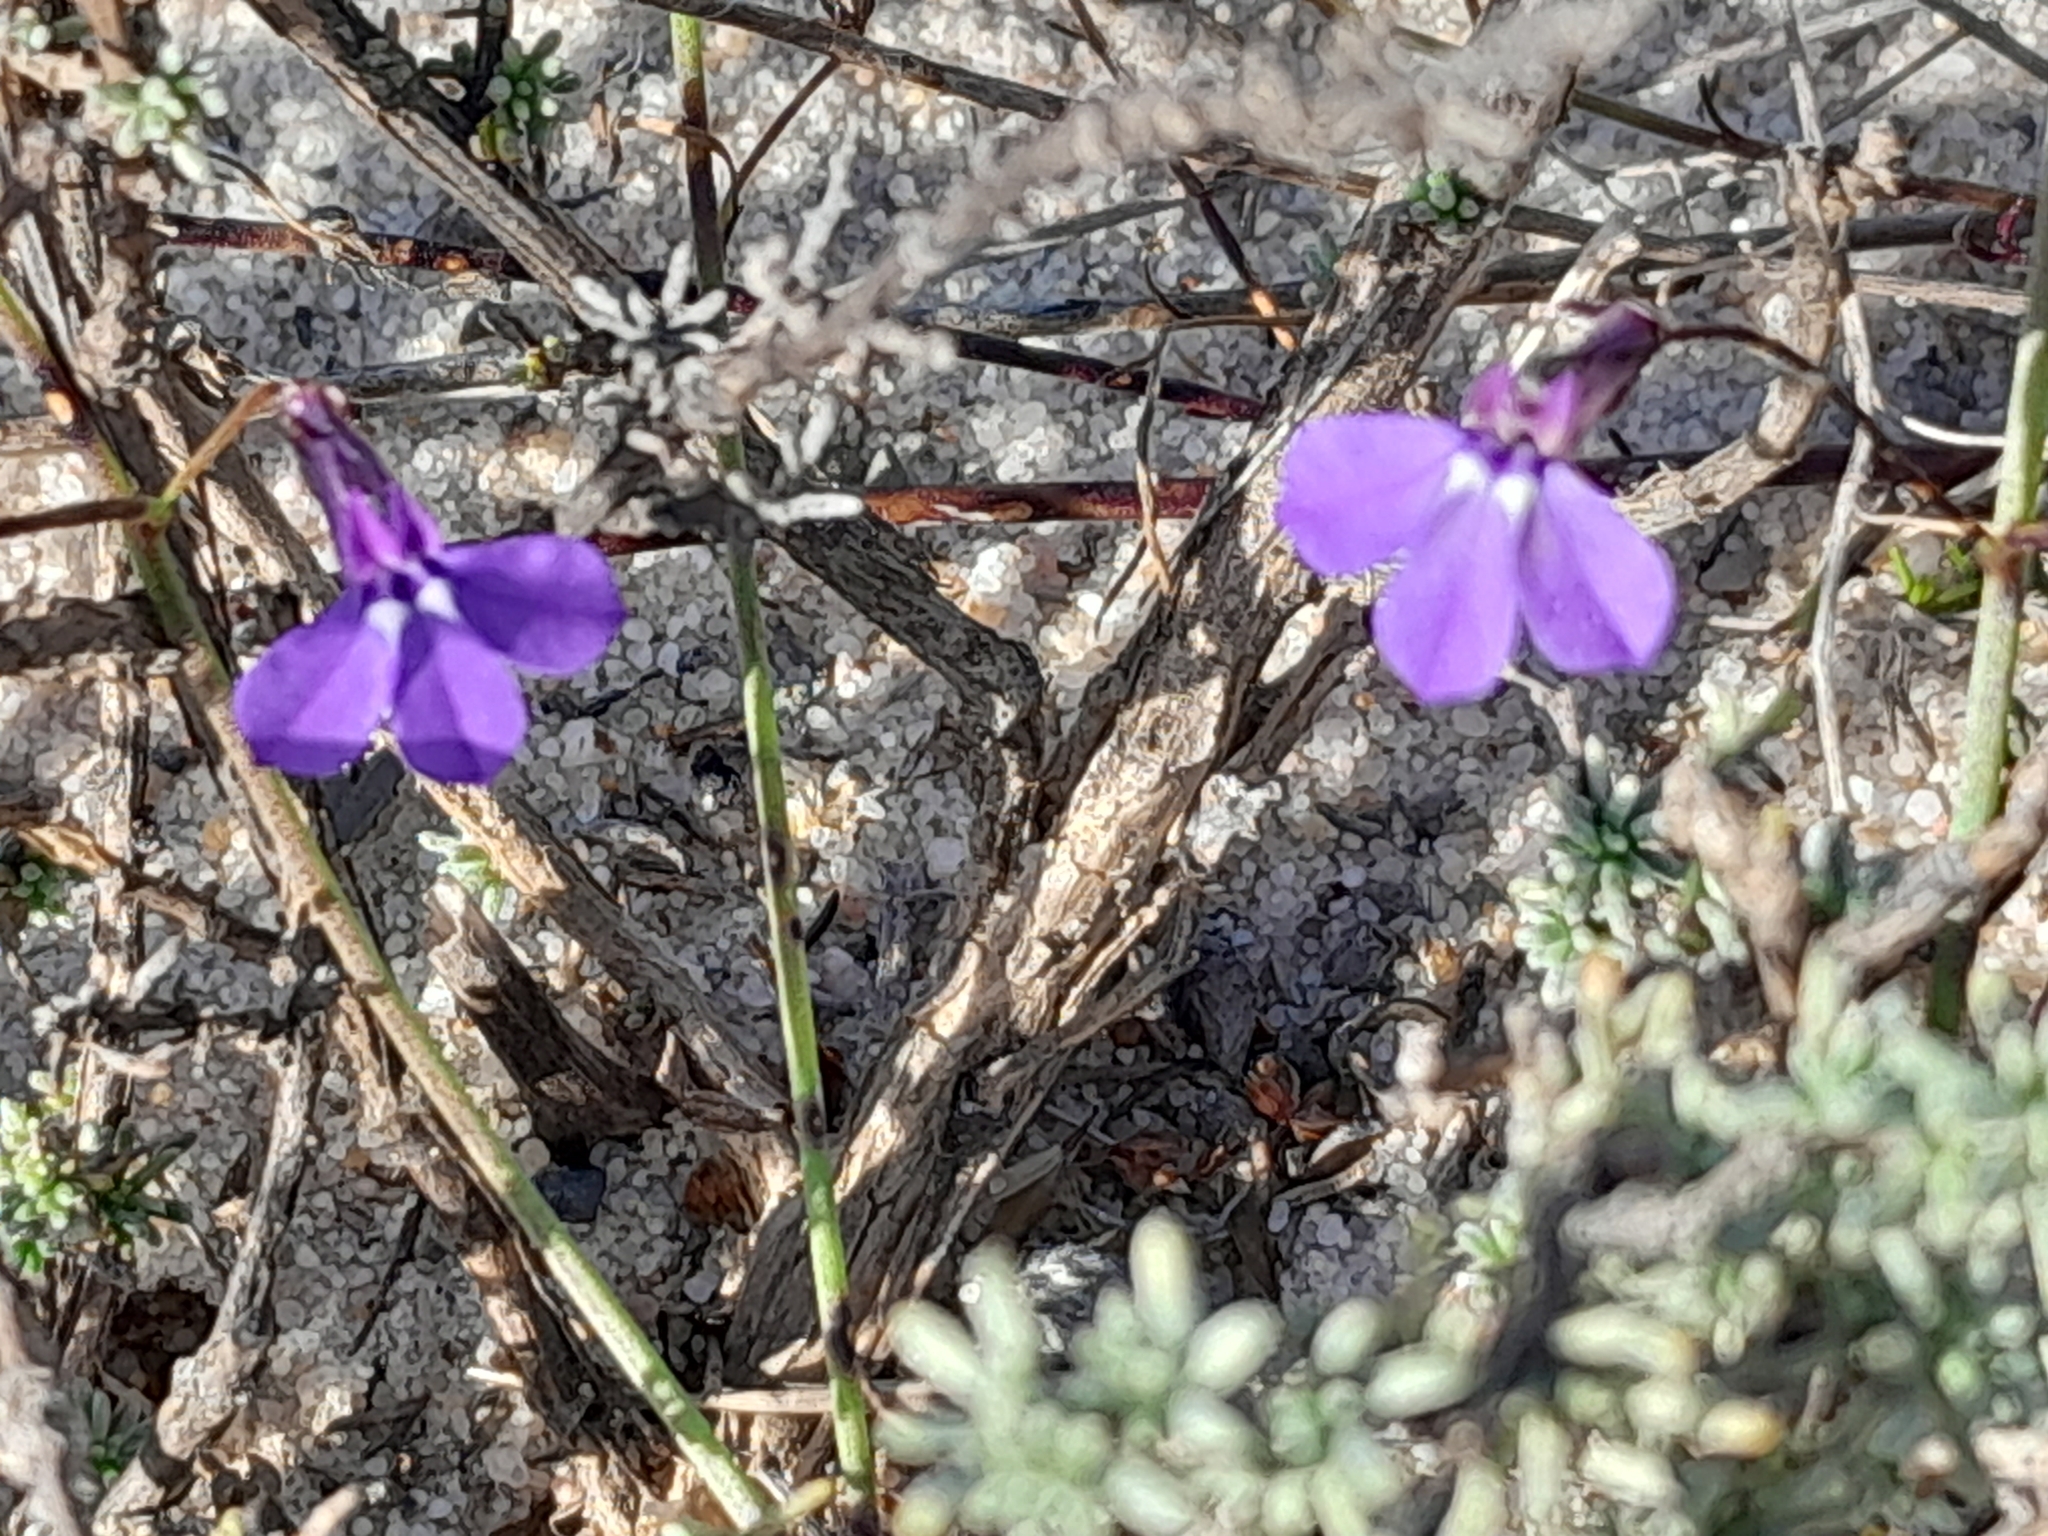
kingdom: Plantae
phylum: Tracheophyta
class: Magnoliopsida
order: Asterales
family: Campanulaceae
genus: Lobelia
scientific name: Lobelia setacea
